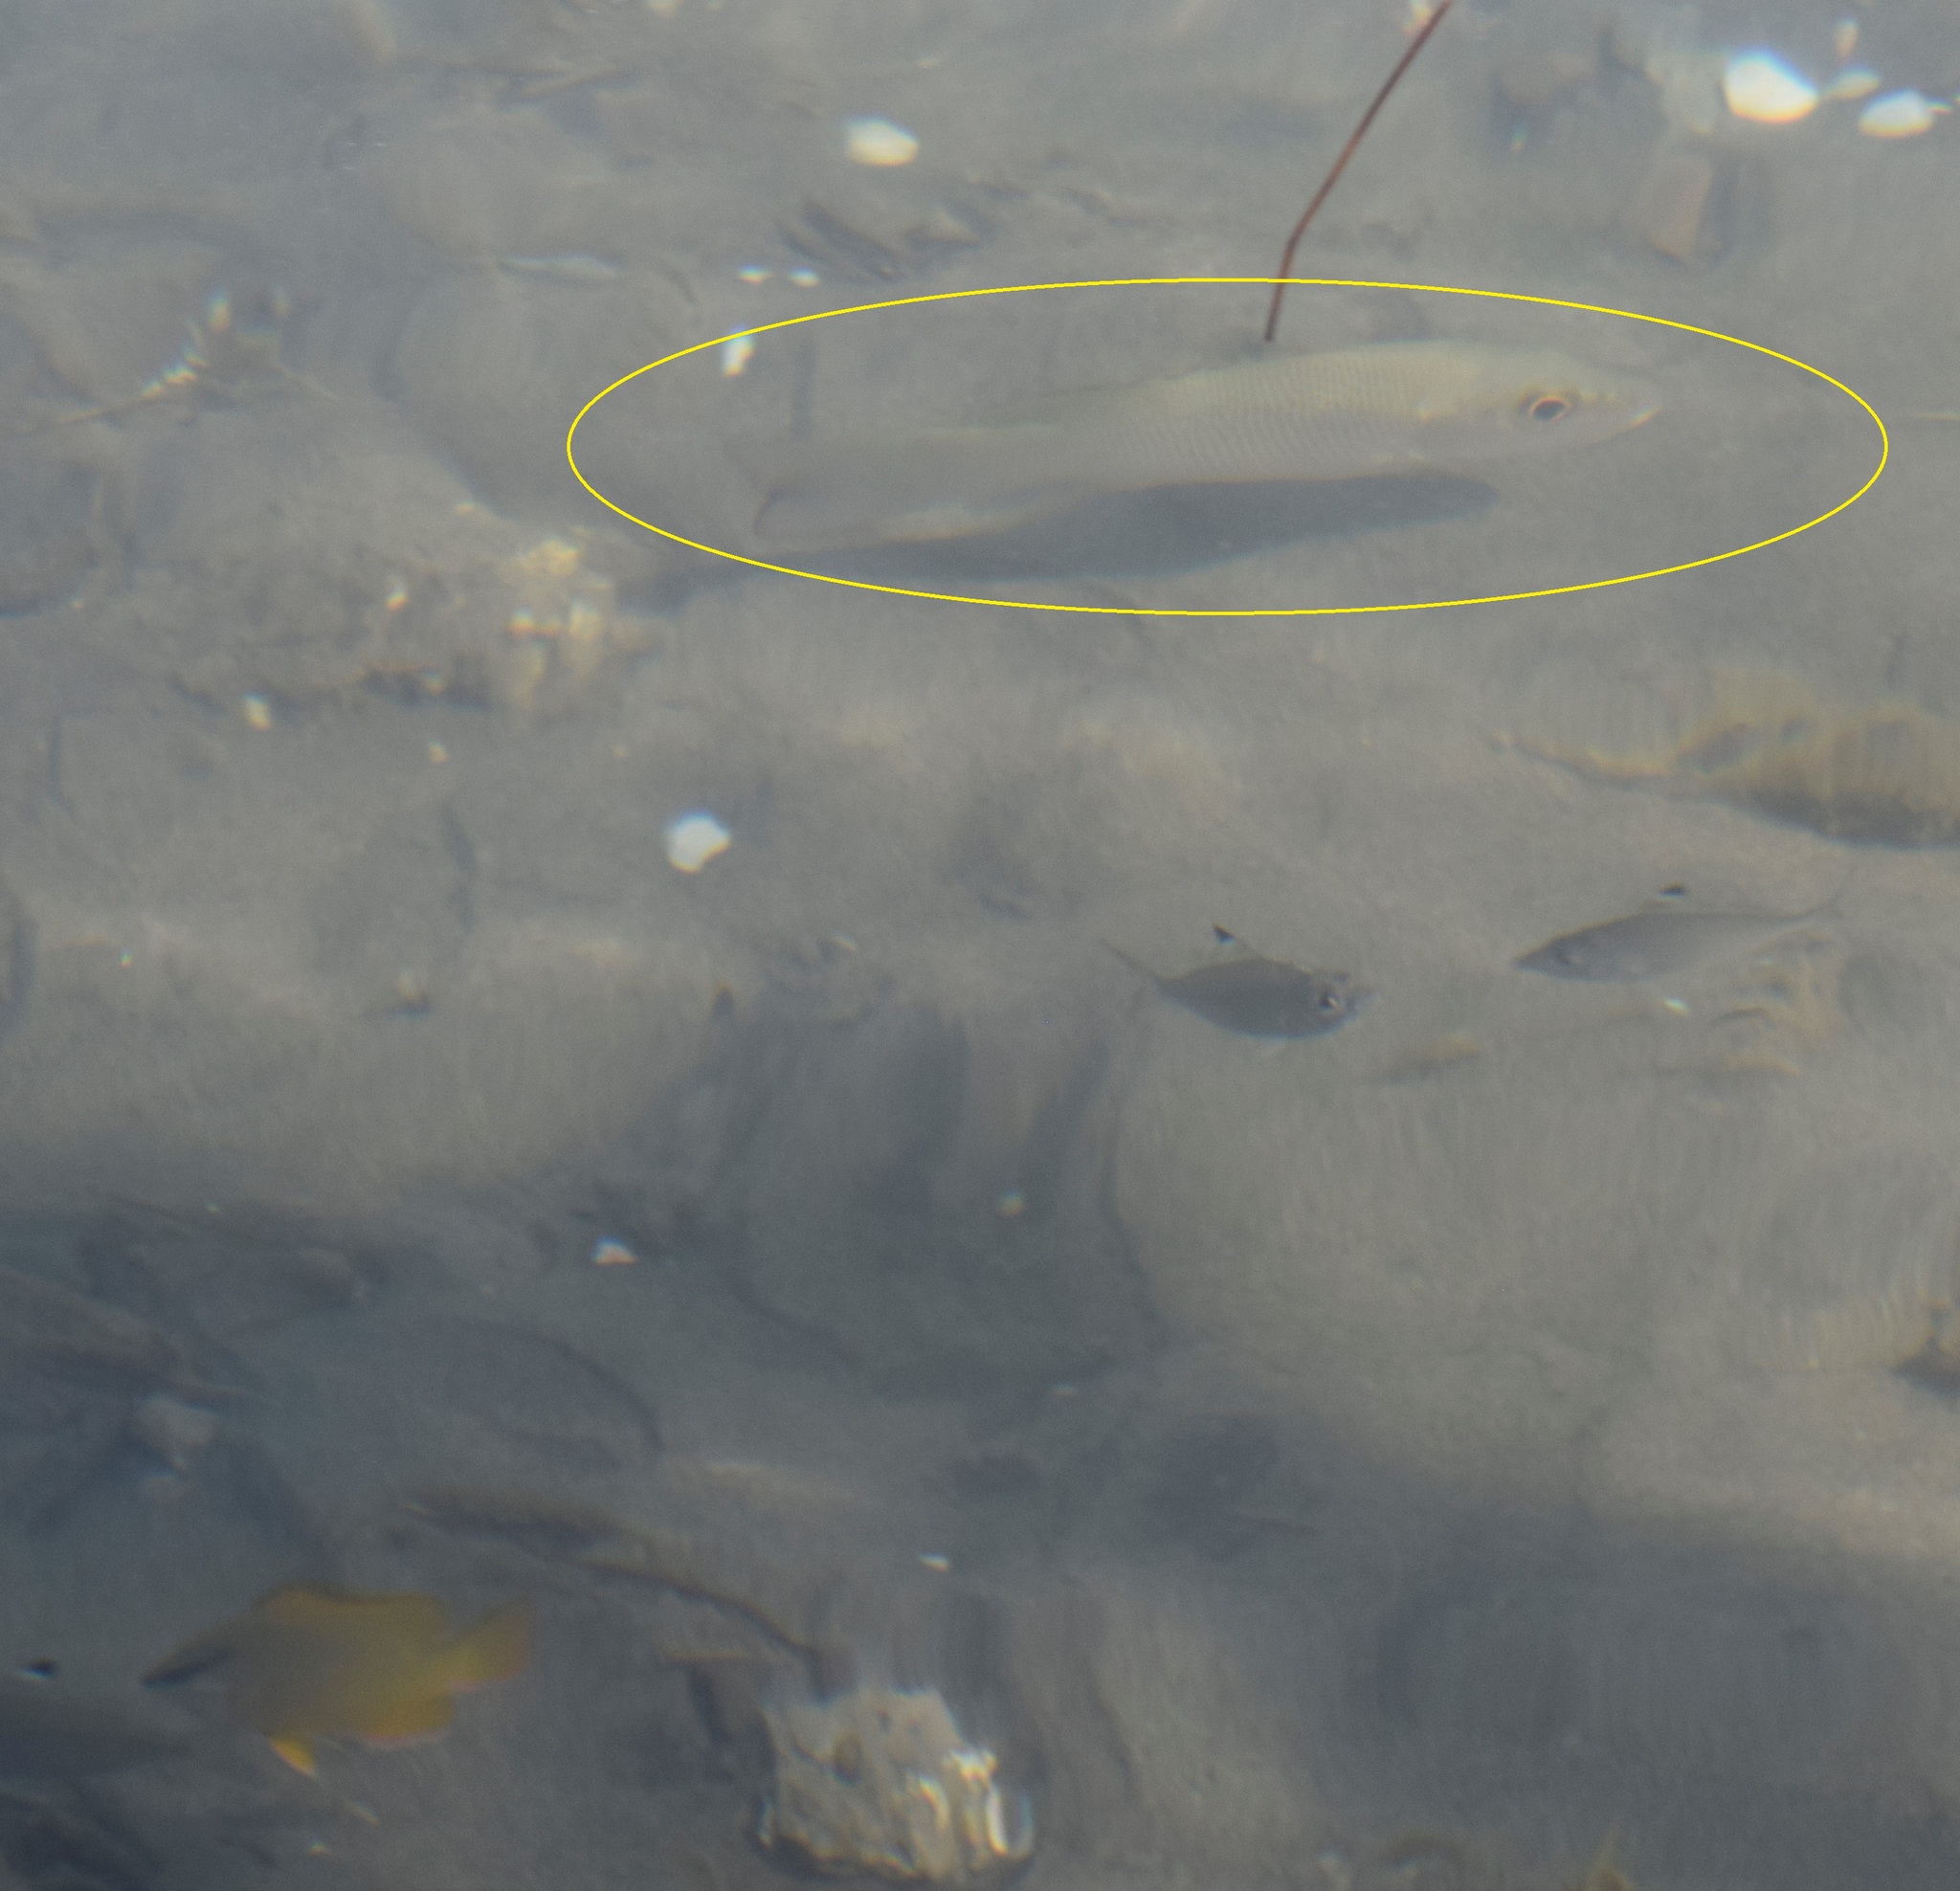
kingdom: Animalia
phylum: Chordata
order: Perciformes
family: Lutjanidae
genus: Lutjanus
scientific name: Lutjanus griseus
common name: Gray snapper
